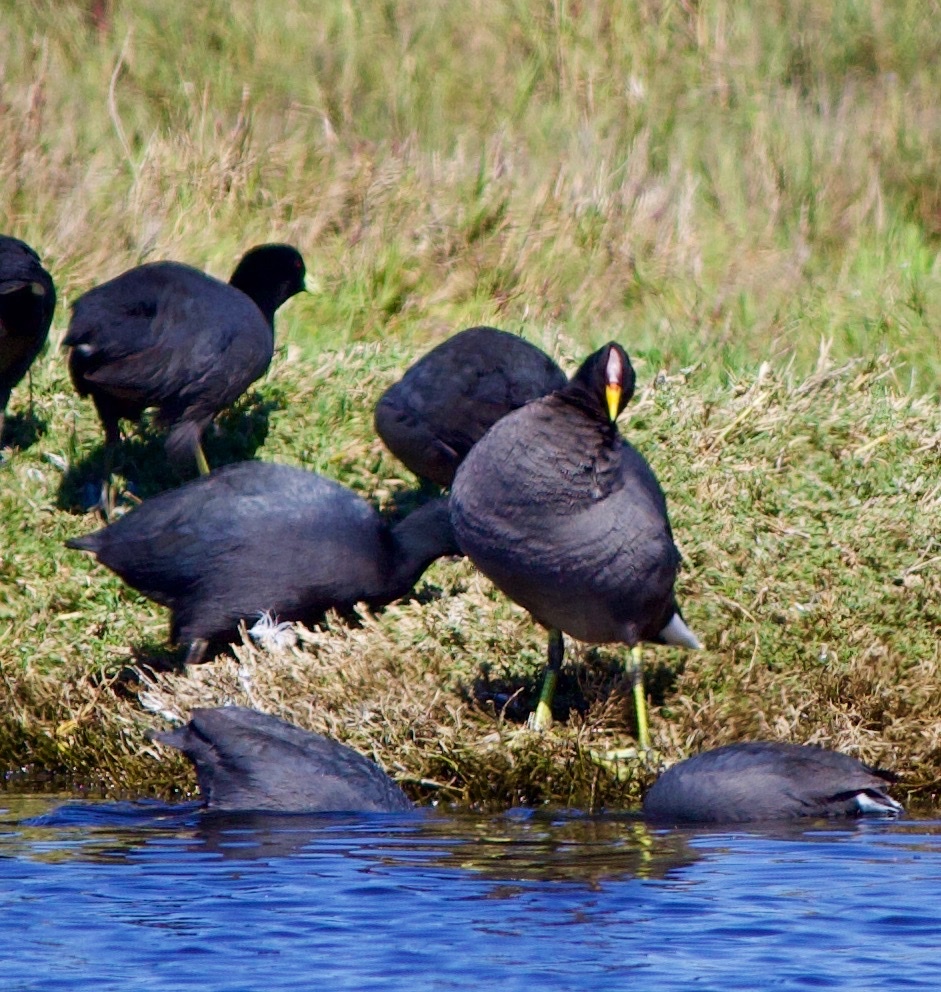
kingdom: Animalia
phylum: Chordata
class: Aves
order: Gruiformes
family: Rallidae
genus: Fulica
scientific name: Fulica rufifrons
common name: Red-fronted coot
